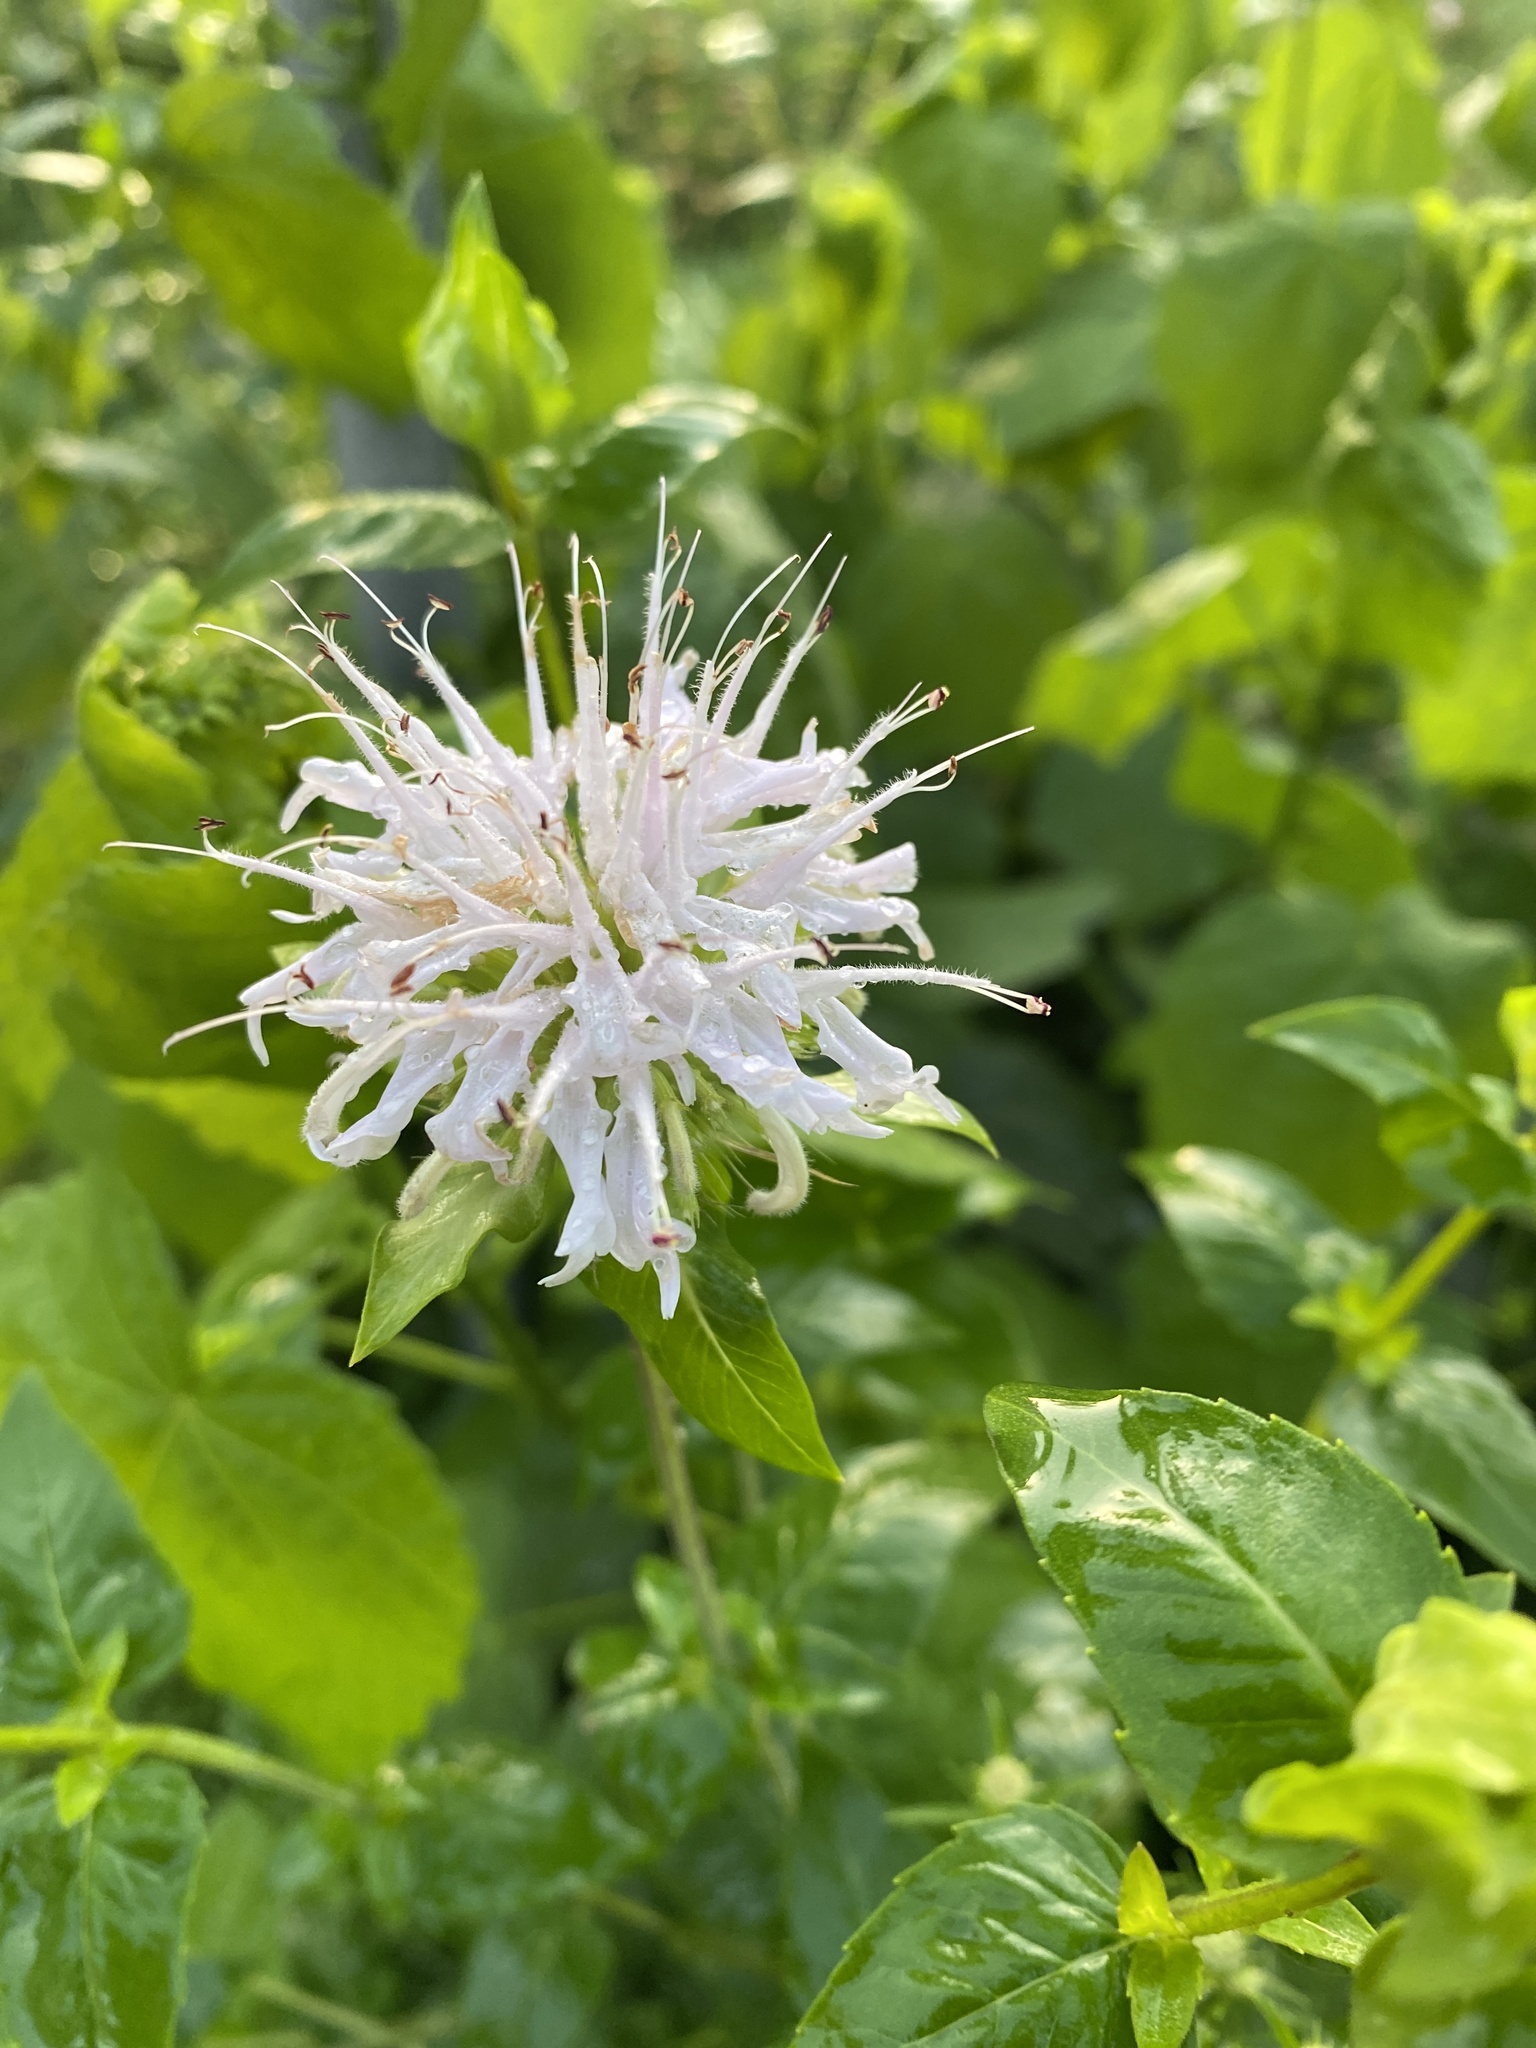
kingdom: Plantae
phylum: Tracheophyta
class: Magnoliopsida
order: Lamiales
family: Lamiaceae
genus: Monarda
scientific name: Monarda lindheimeri
